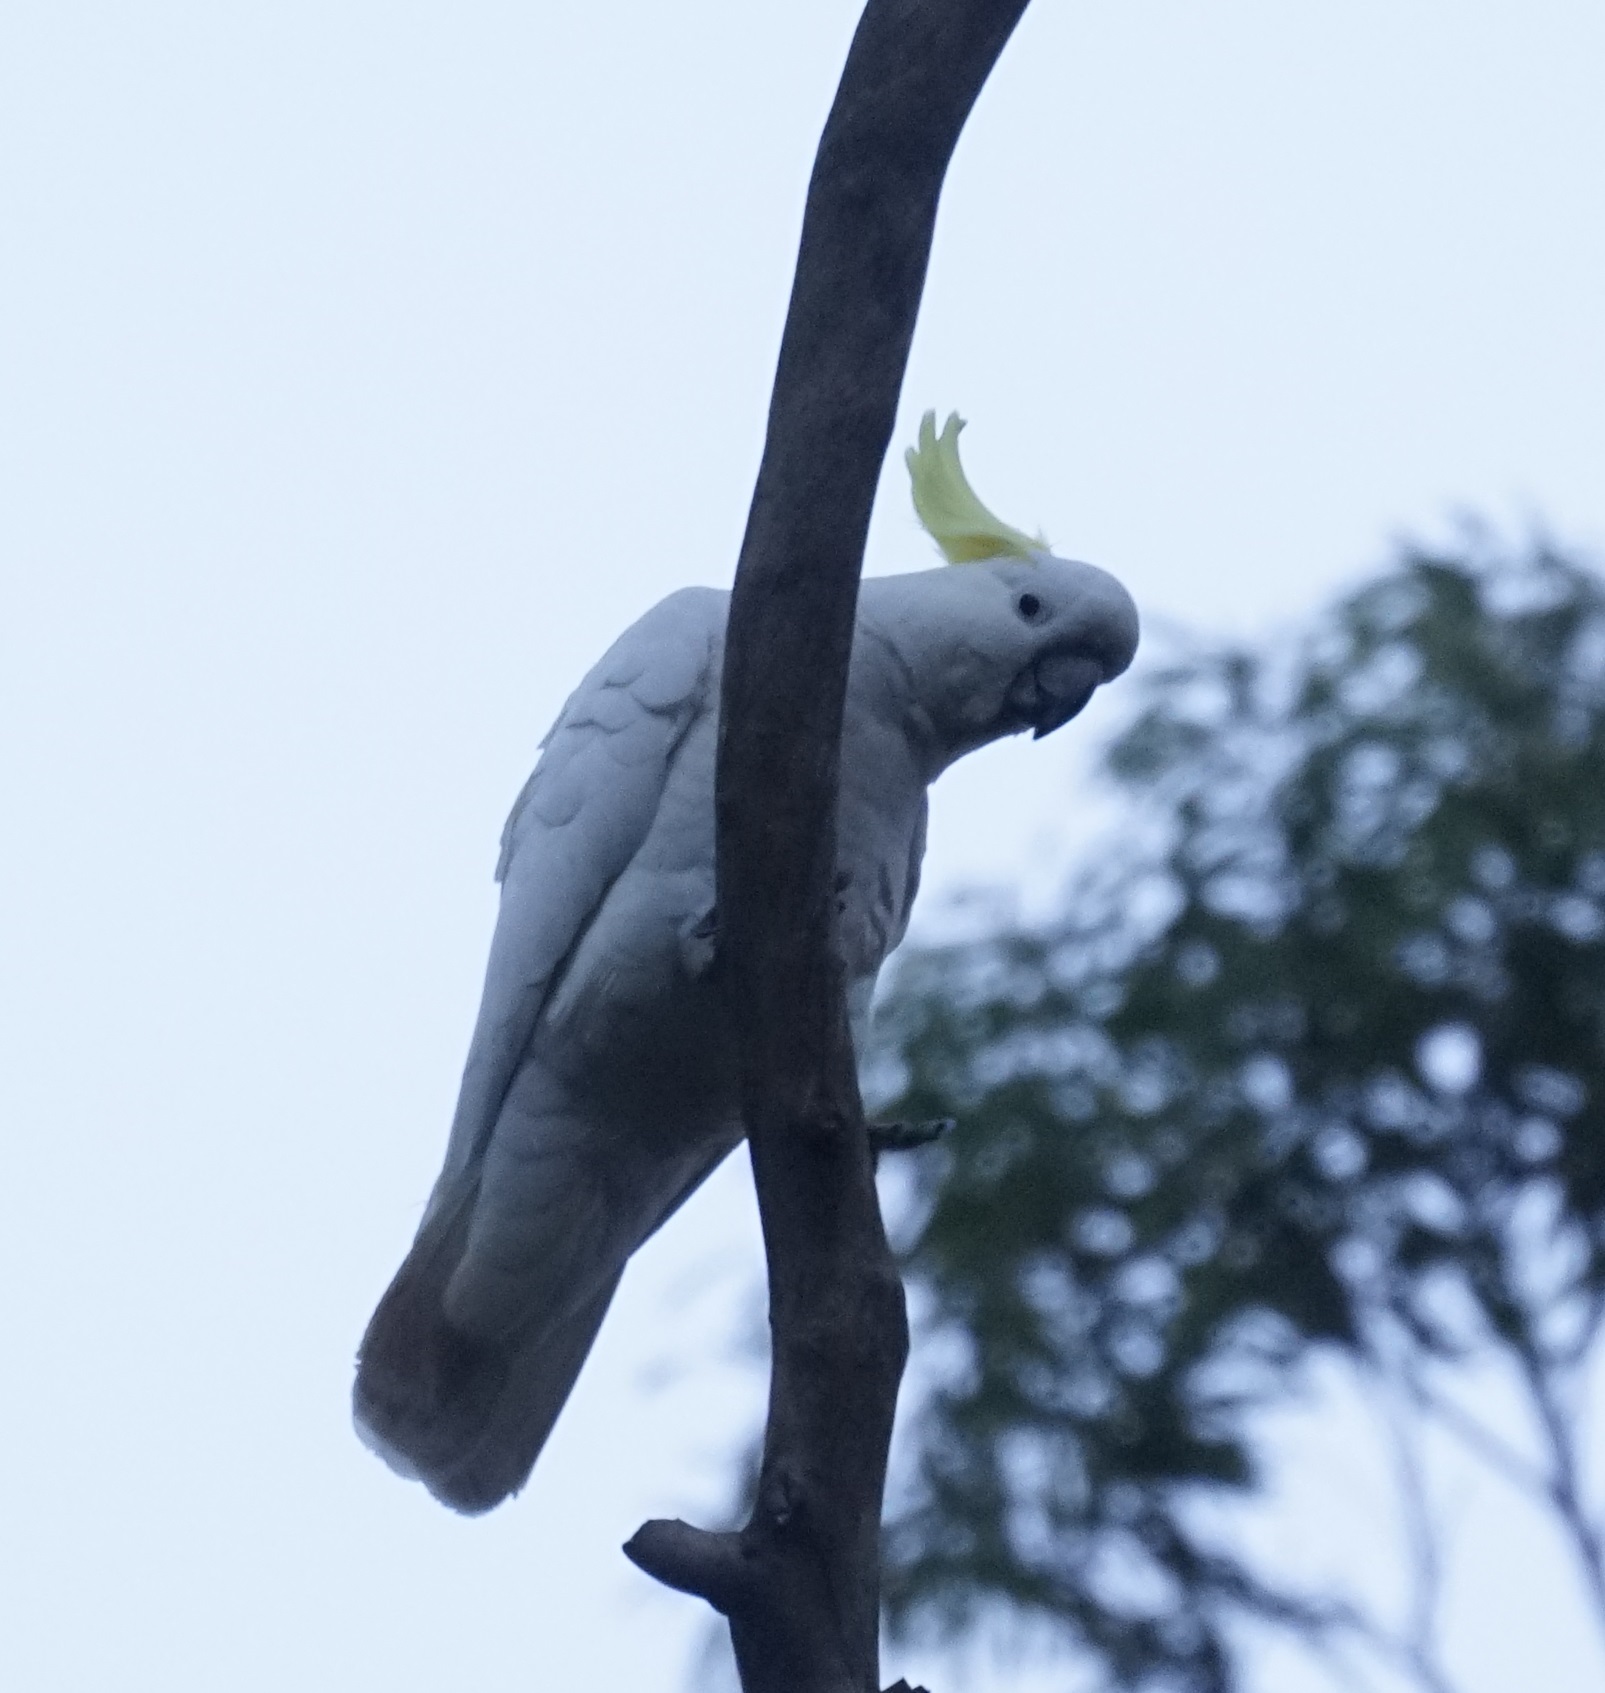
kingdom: Animalia
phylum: Chordata
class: Aves
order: Psittaciformes
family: Psittacidae
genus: Cacatua
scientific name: Cacatua galerita
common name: Sulphur-crested cockatoo
